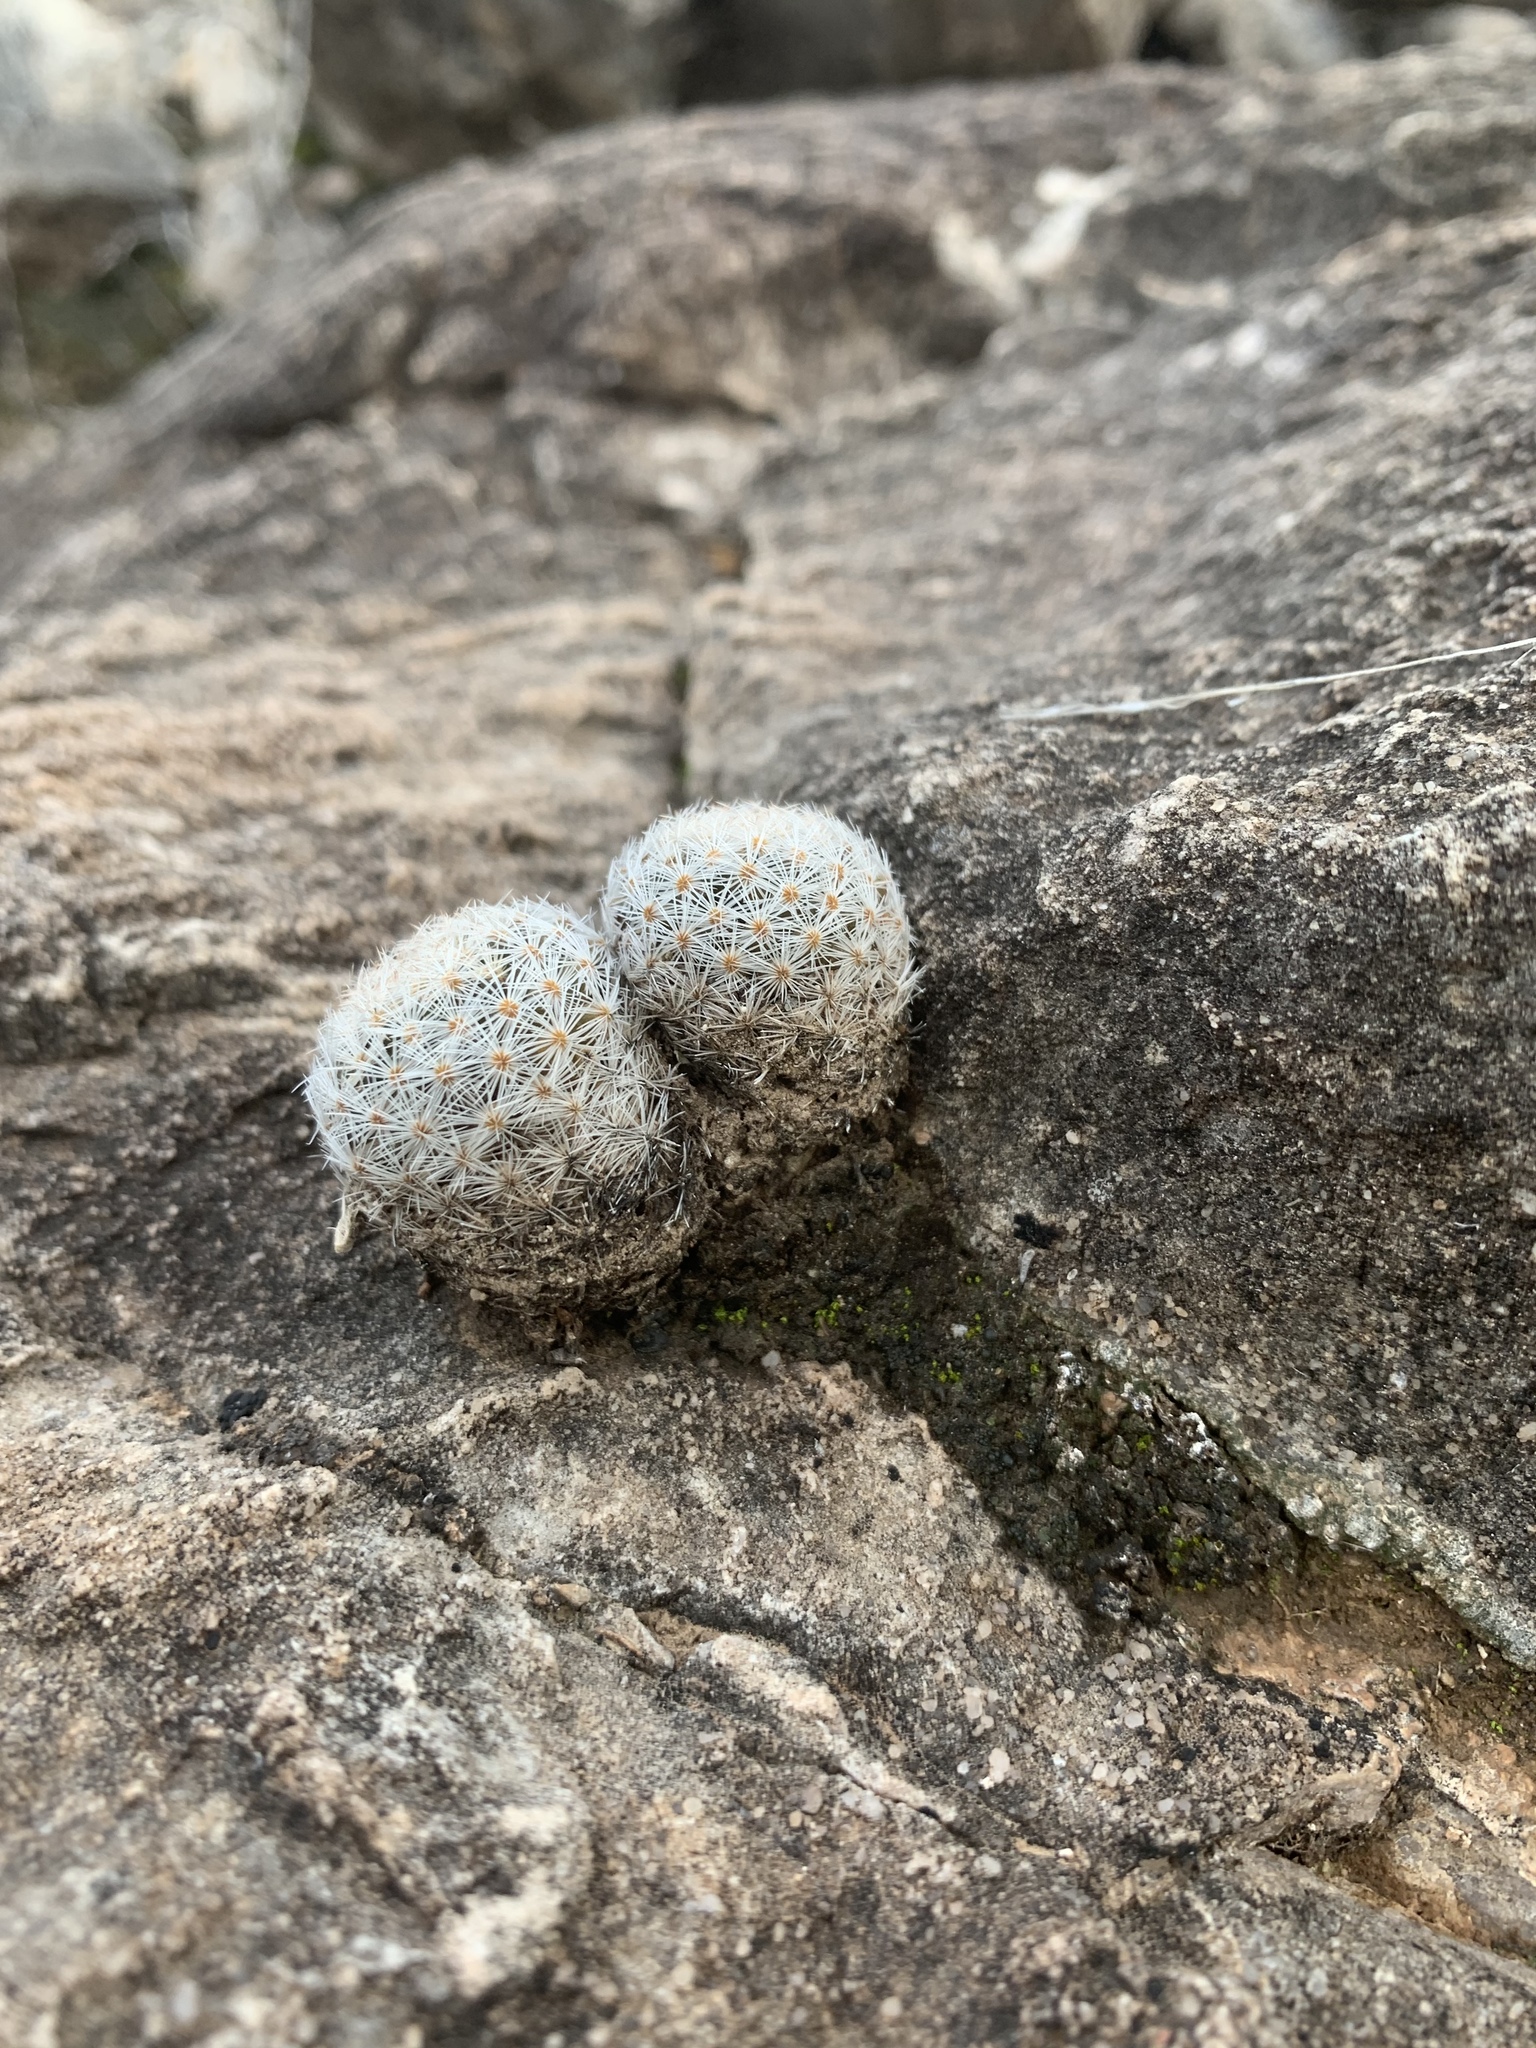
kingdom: Plantae
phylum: Tracheophyta
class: Magnoliopsida
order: Caryophyllales
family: Cactaceae
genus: Mammillaria
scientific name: Mammillaria lasiacantha
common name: Lace-spine nipple cactus
